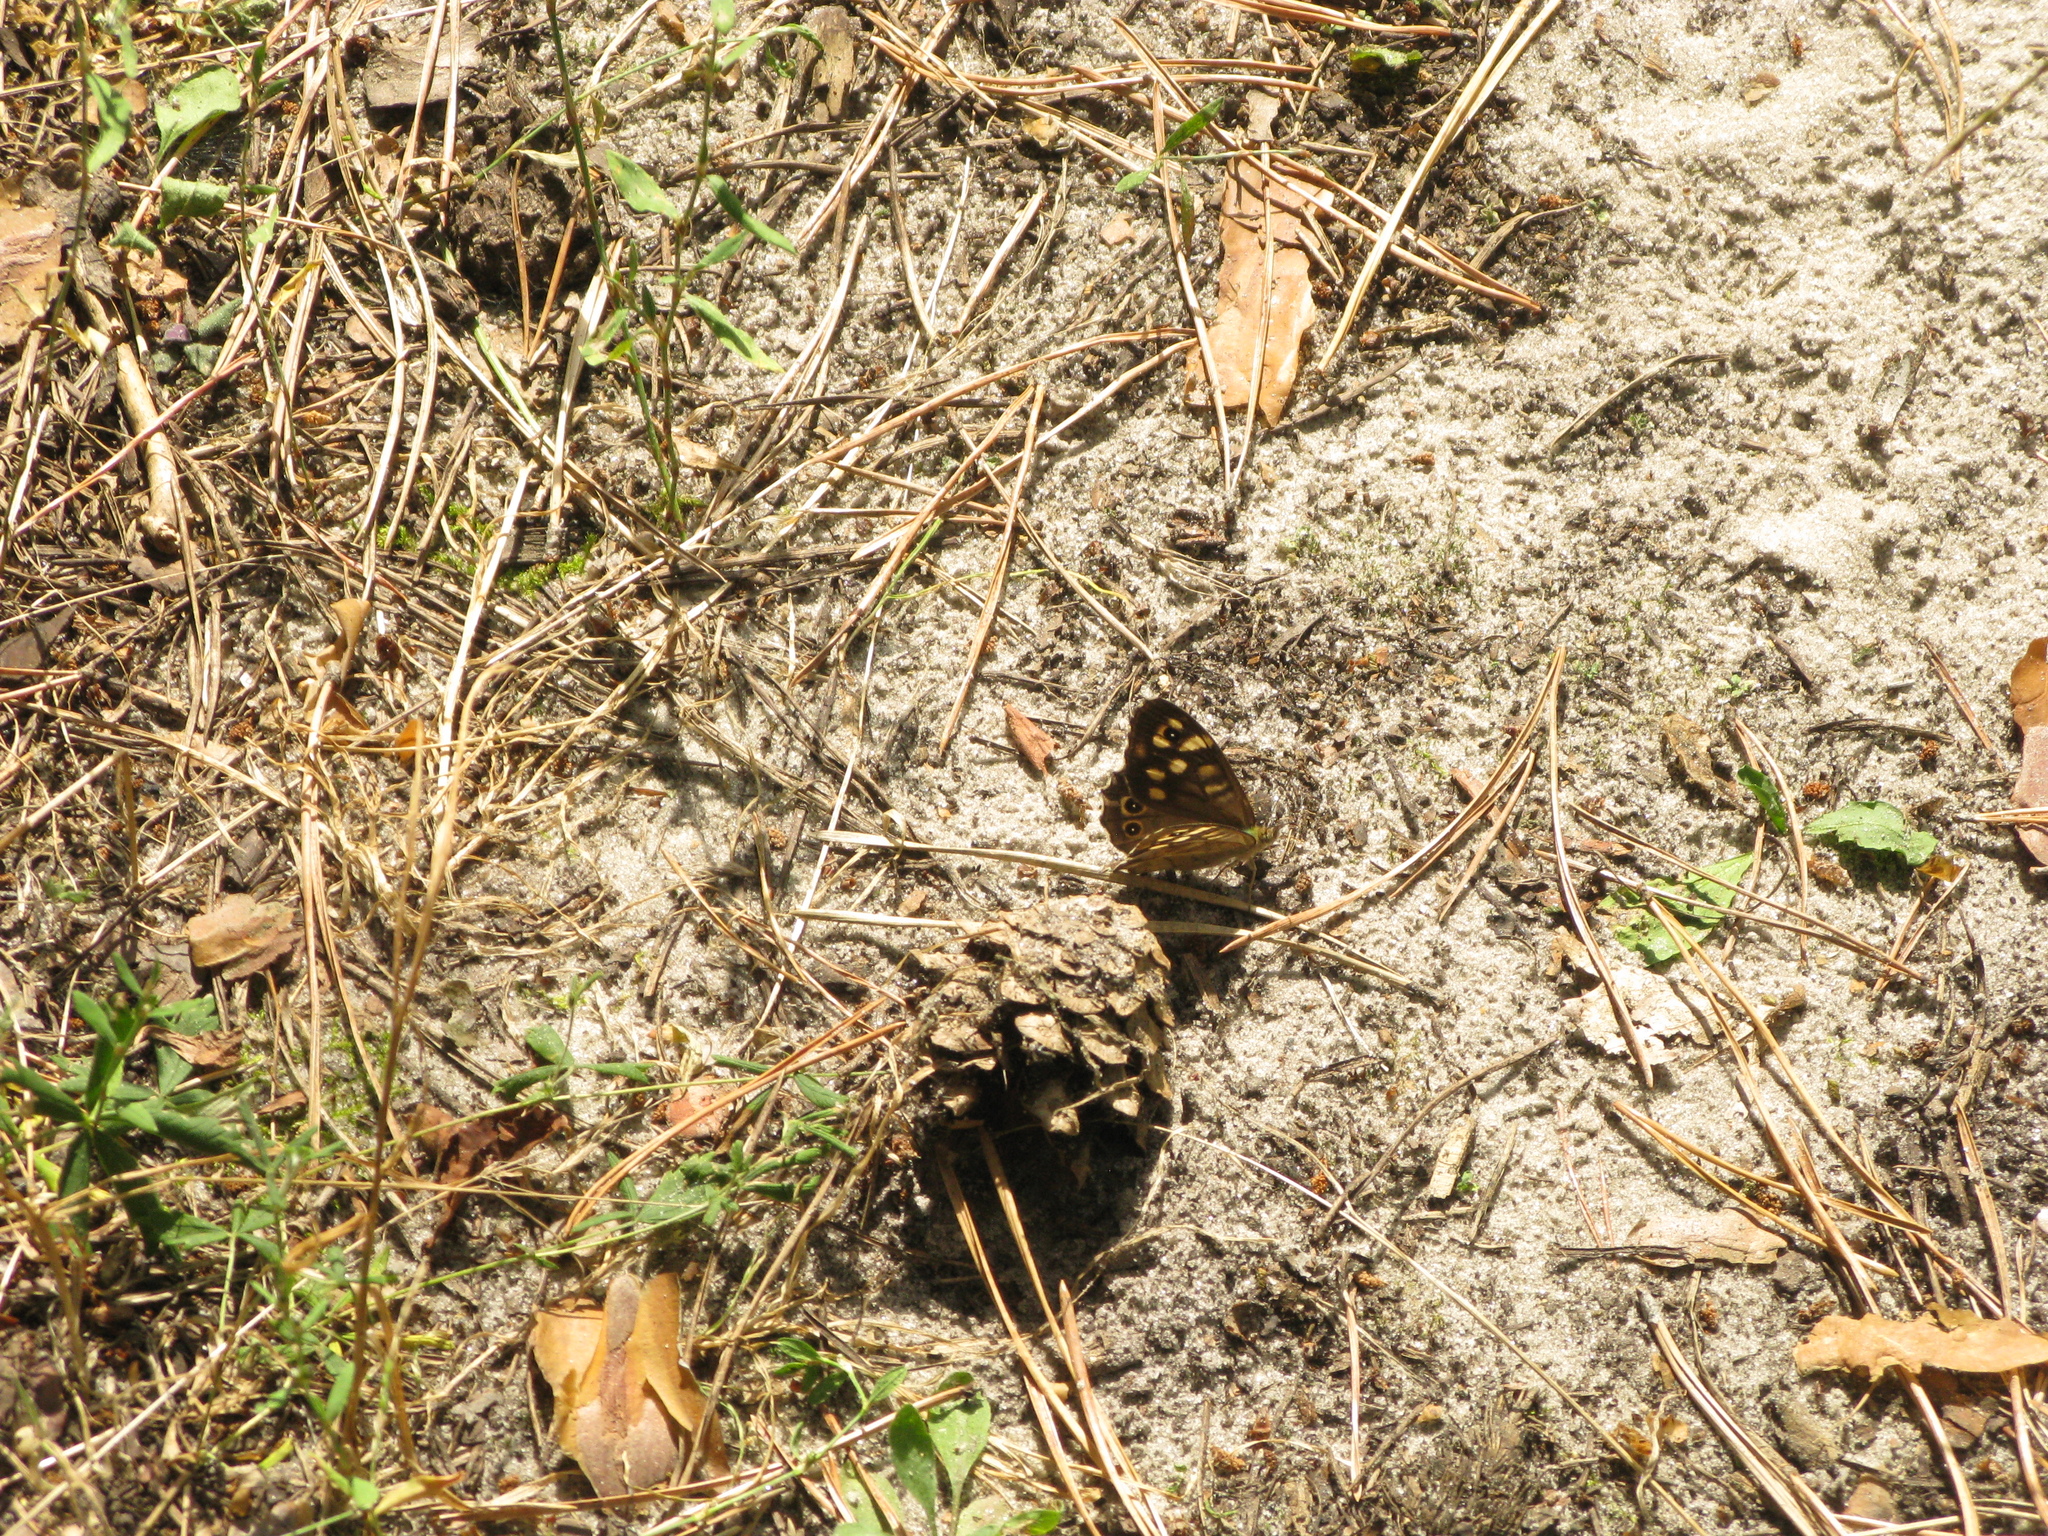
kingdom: Animalia
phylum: Arthropoda
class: Insecta
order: Lepidoptera
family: Nymphalidae
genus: Pararge
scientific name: Pararge aegeria
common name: Speckled wood
